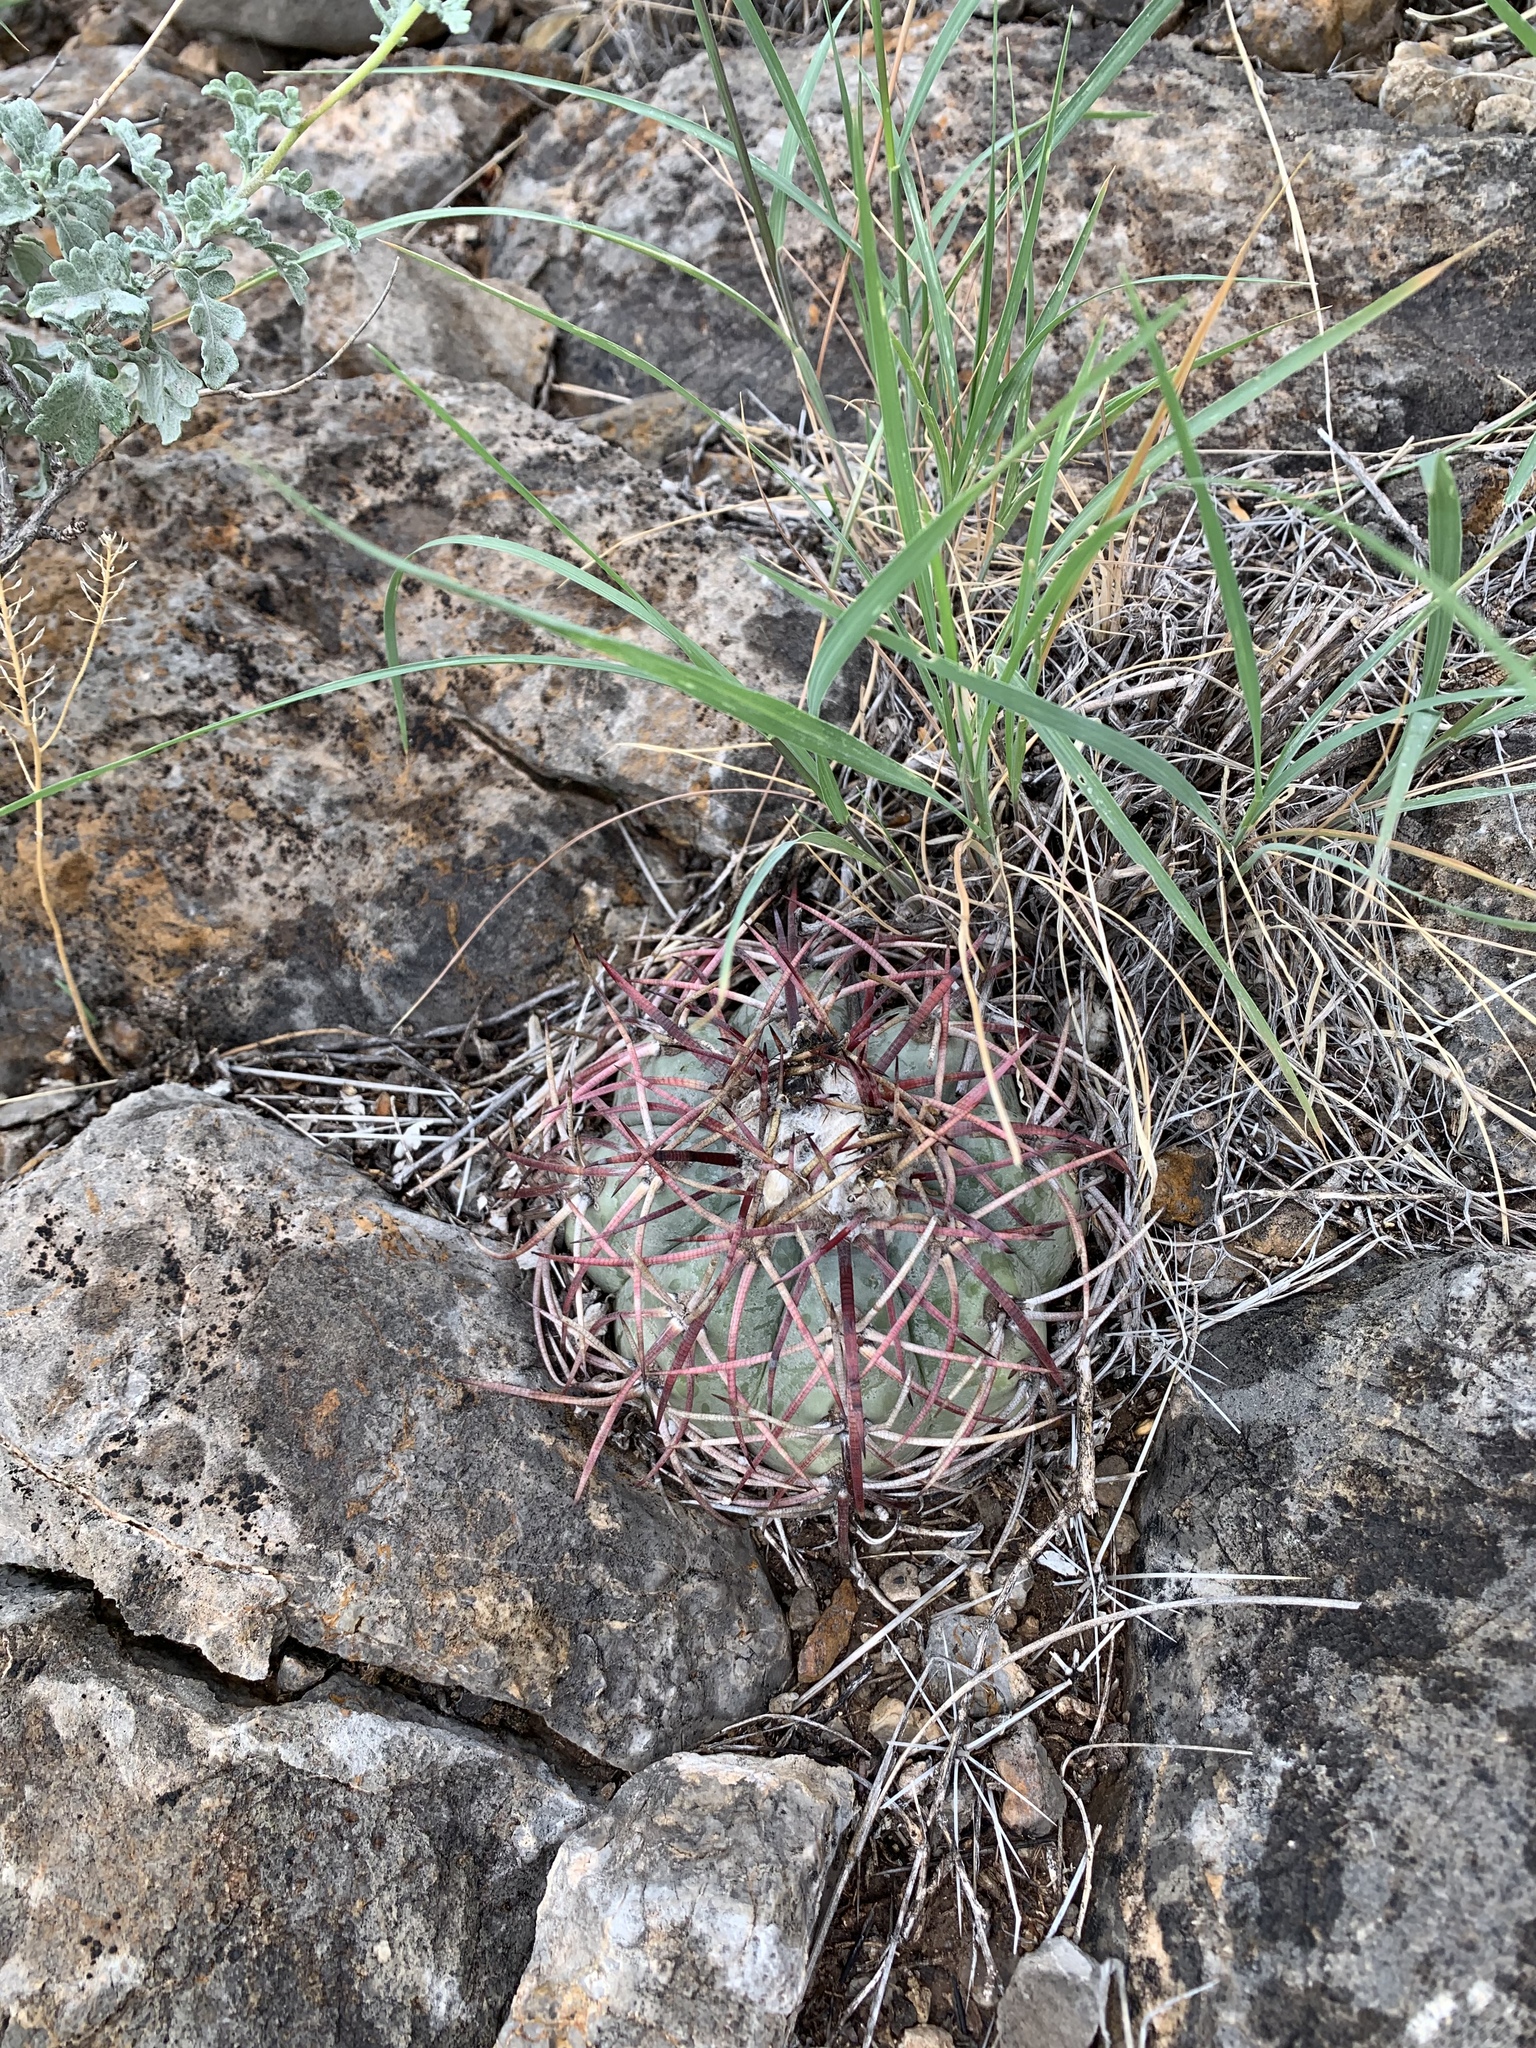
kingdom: Plantae
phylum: Tracheophyta
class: Magnoliopsida
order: Caryophyllales
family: Cactaceae
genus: Echinocactus
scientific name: Echinocactus horizonthalonius
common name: Devilshead
